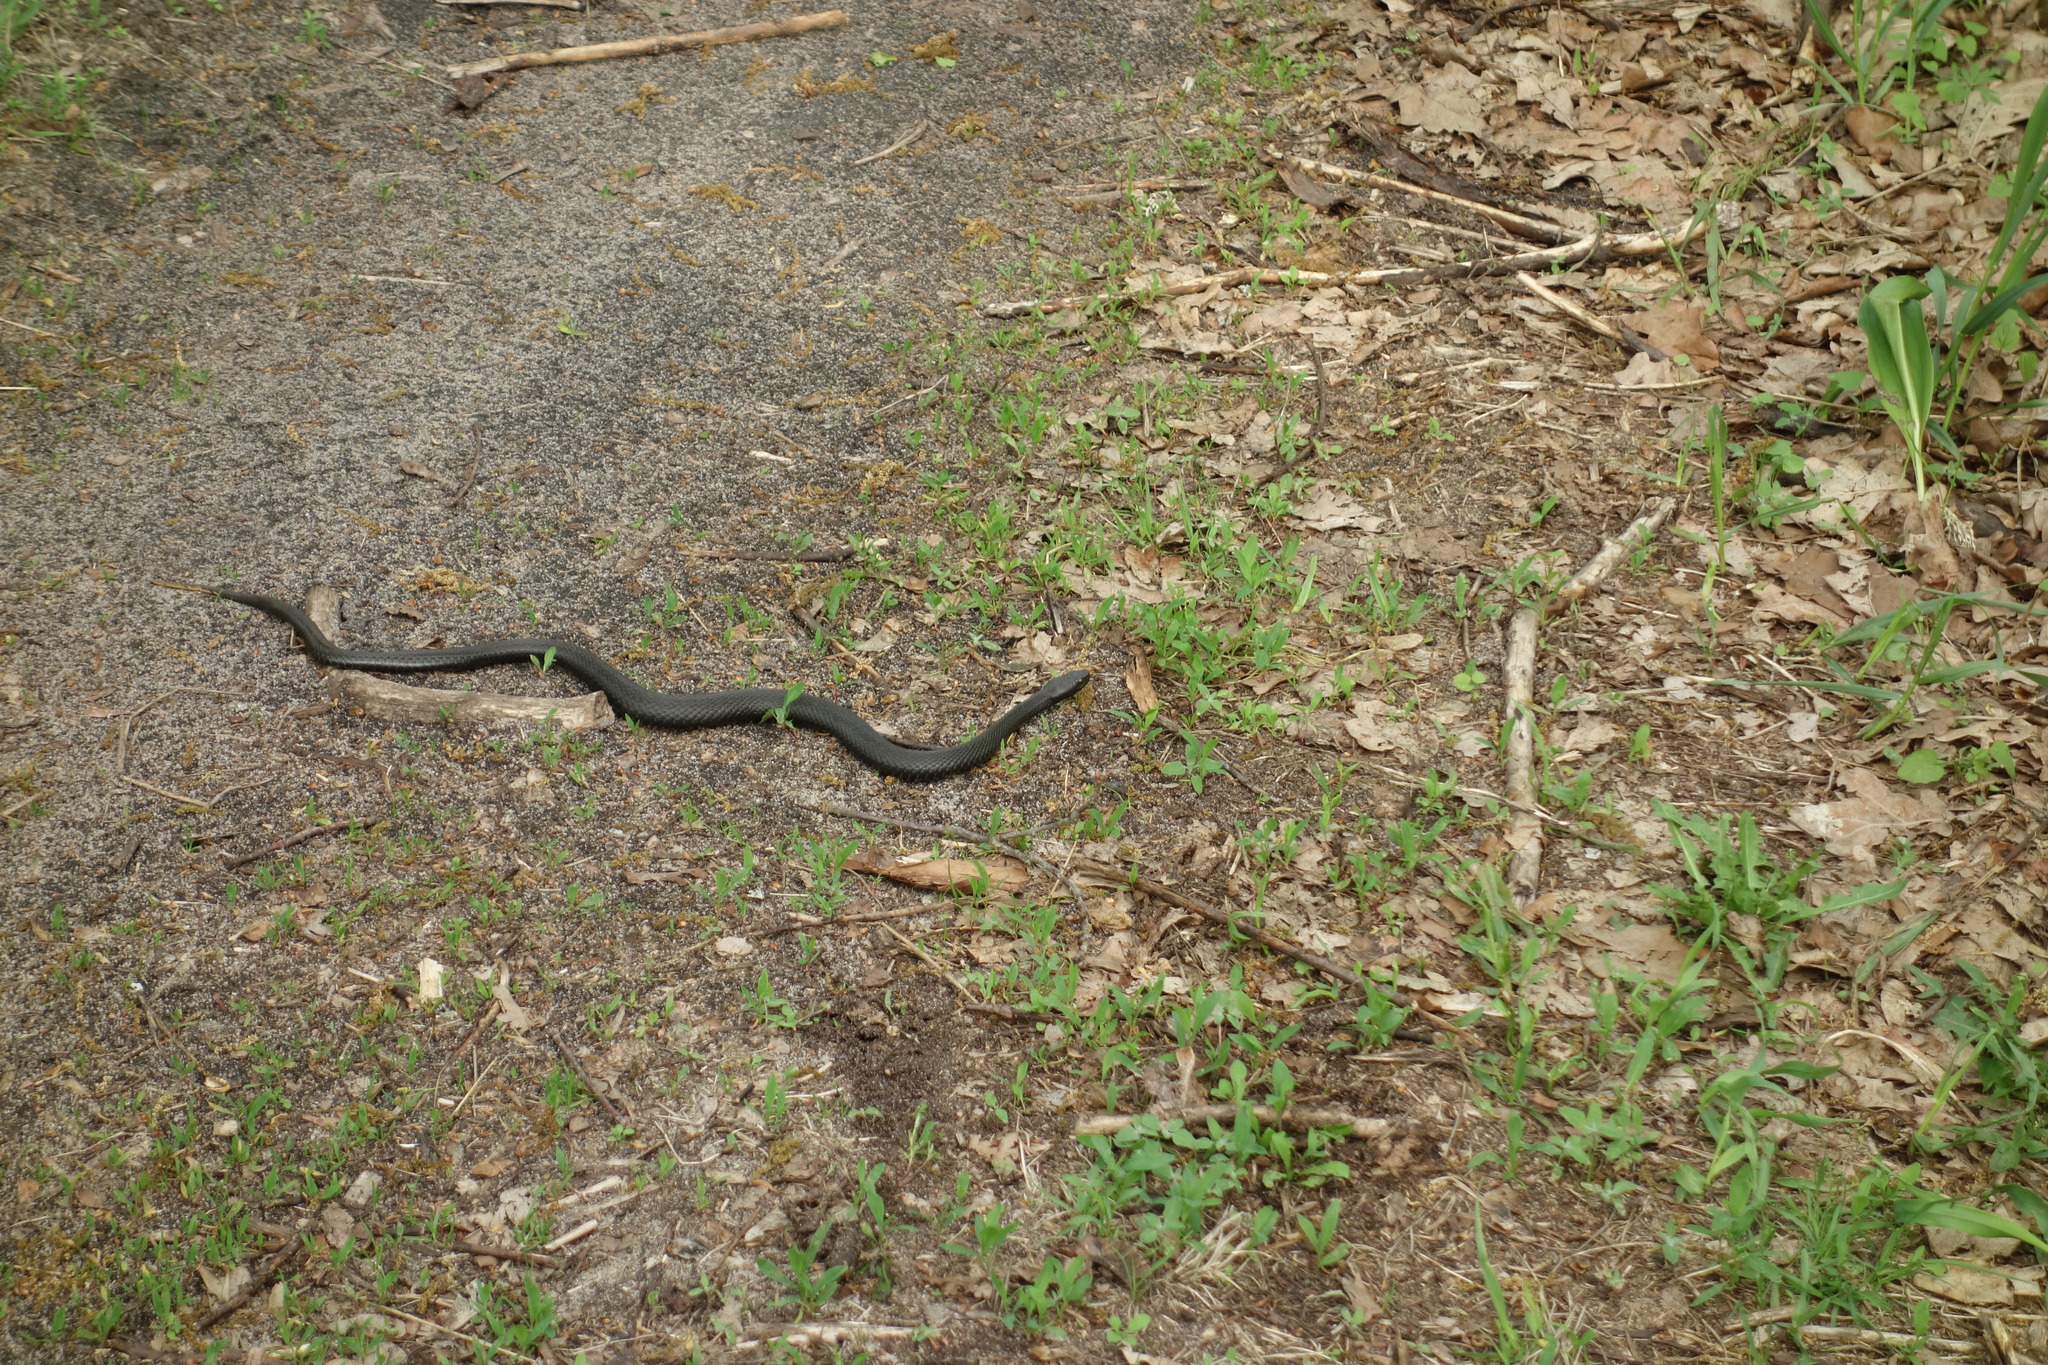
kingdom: Animalia
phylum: Chordata
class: Squamata
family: Viperidae
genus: Vipera
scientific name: Vipera nikolskii
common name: Adder
